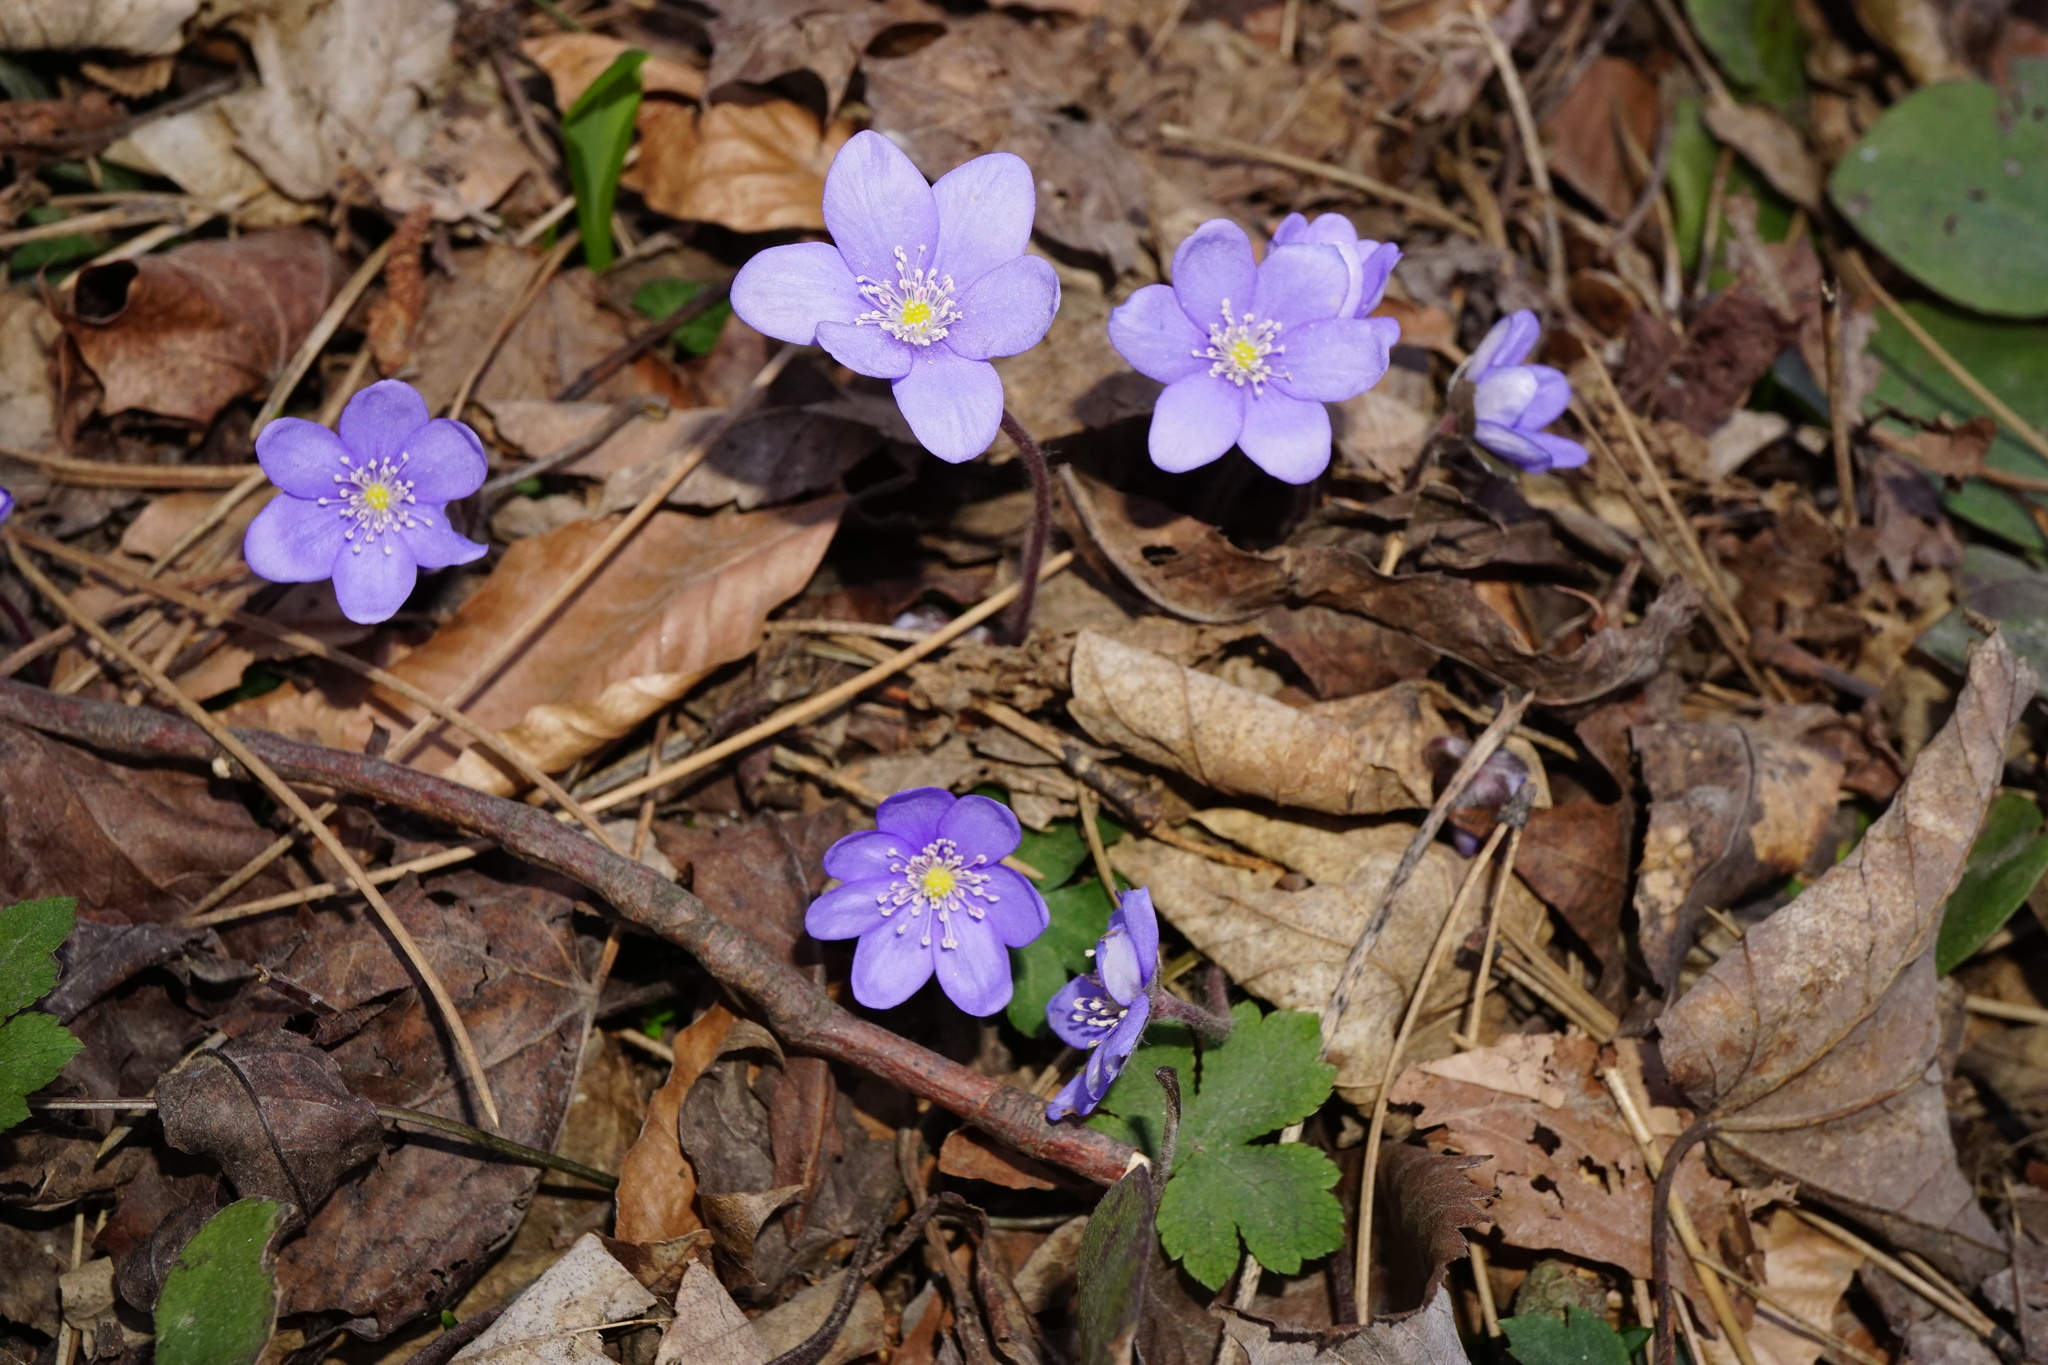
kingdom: Plantae
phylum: Tracheophyta
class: Magnoliopsida
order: Ranunculales
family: Ranunculaceae
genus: Hepatica
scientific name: Hepatica nobilis
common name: Liverleaf
